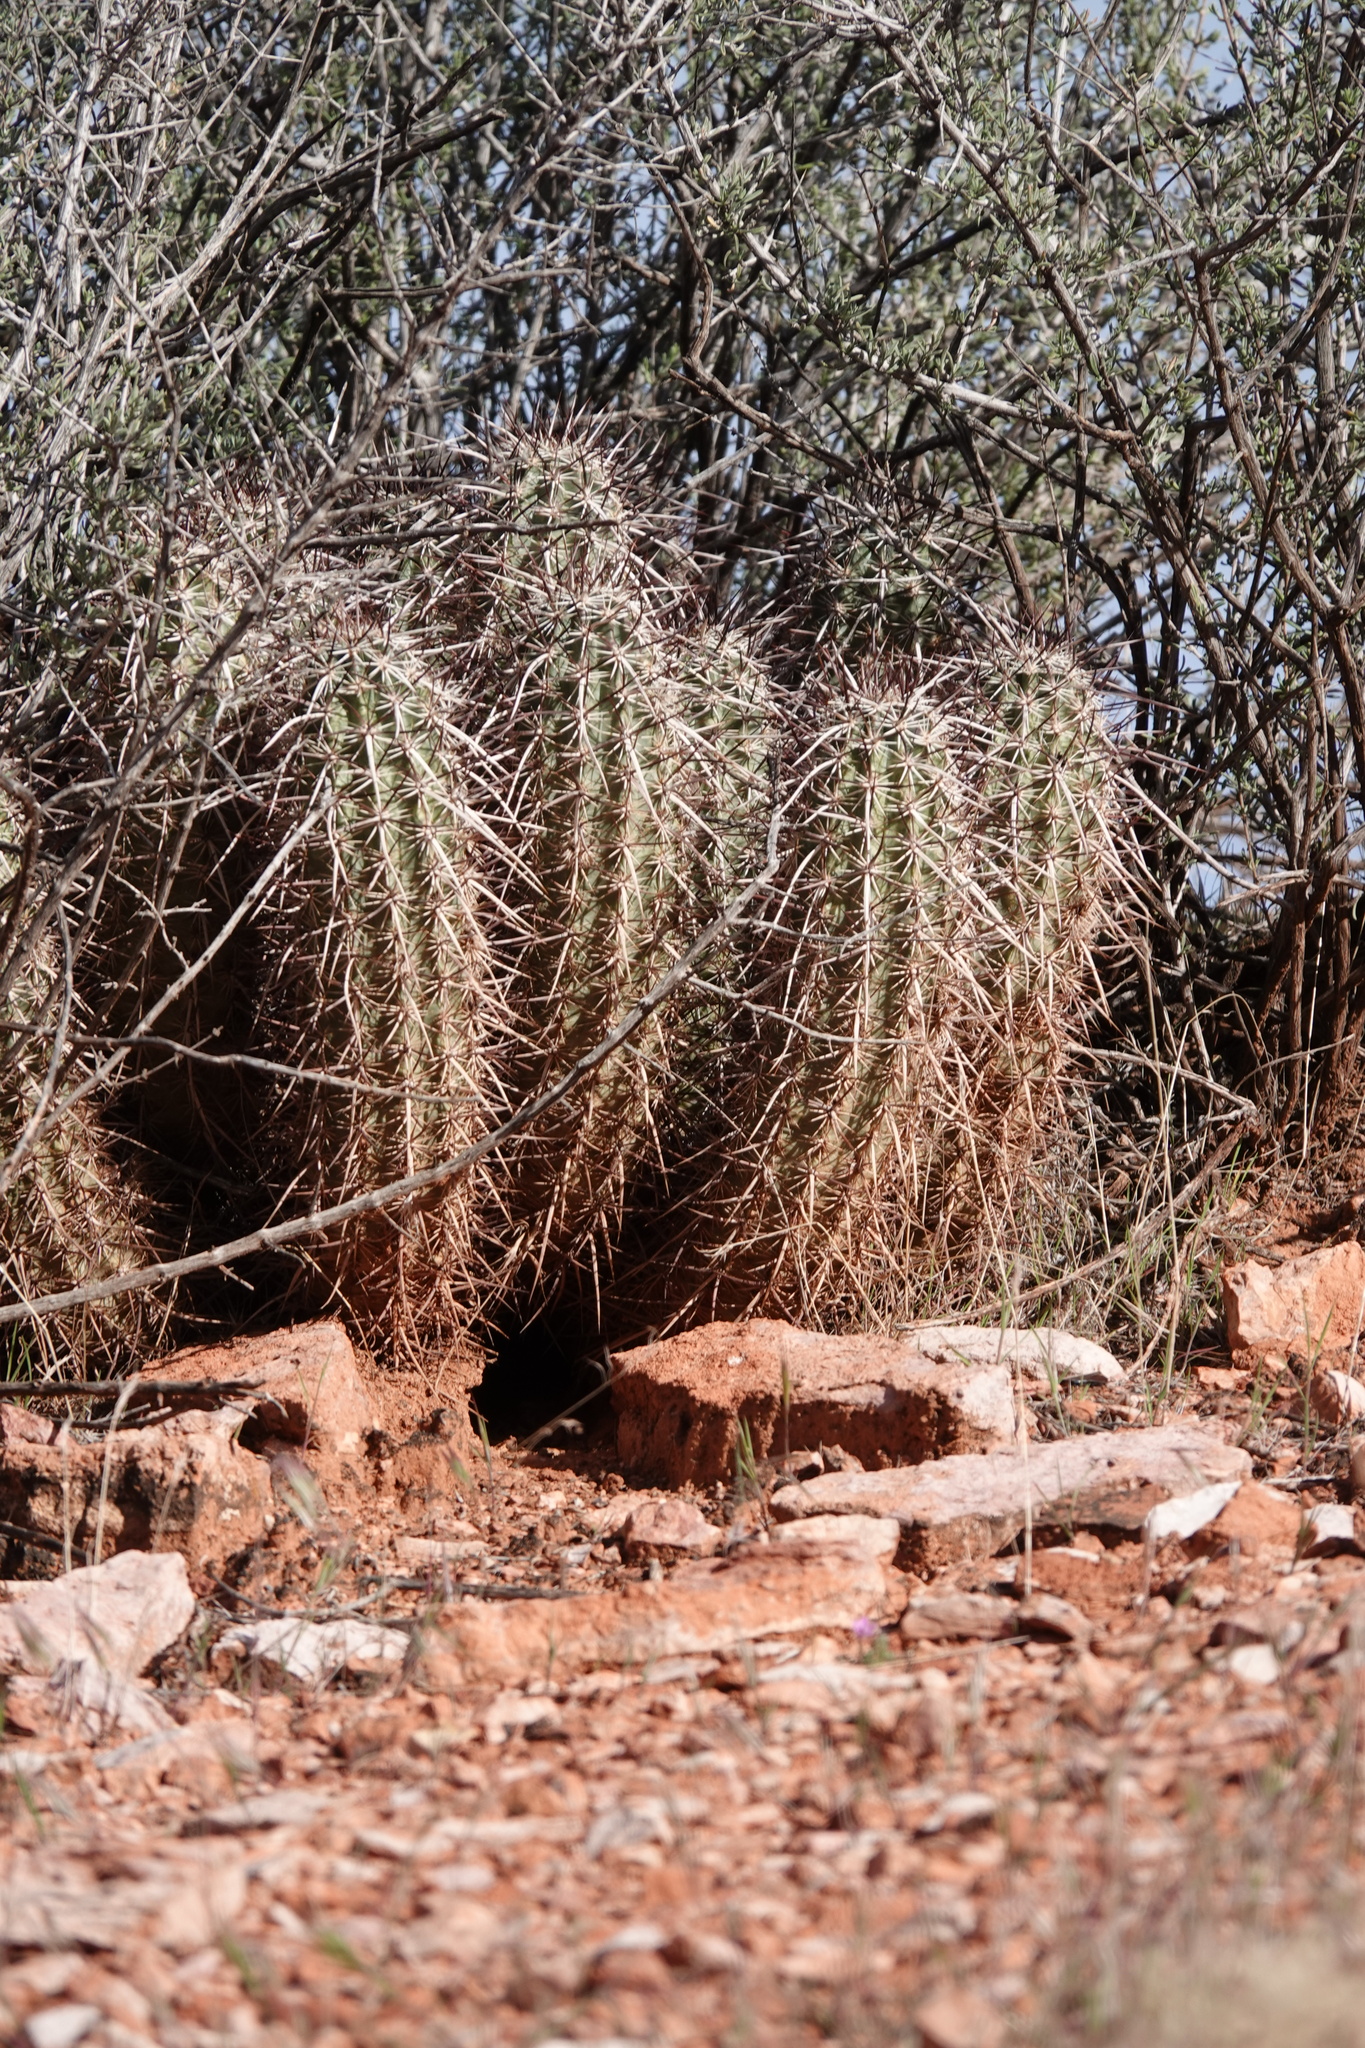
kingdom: Plantae
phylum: Tracheophyta
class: Magnoliopsida
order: Caryophyllales
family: Cactaceae
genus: Echinocereus
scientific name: Echinocereus relictus
